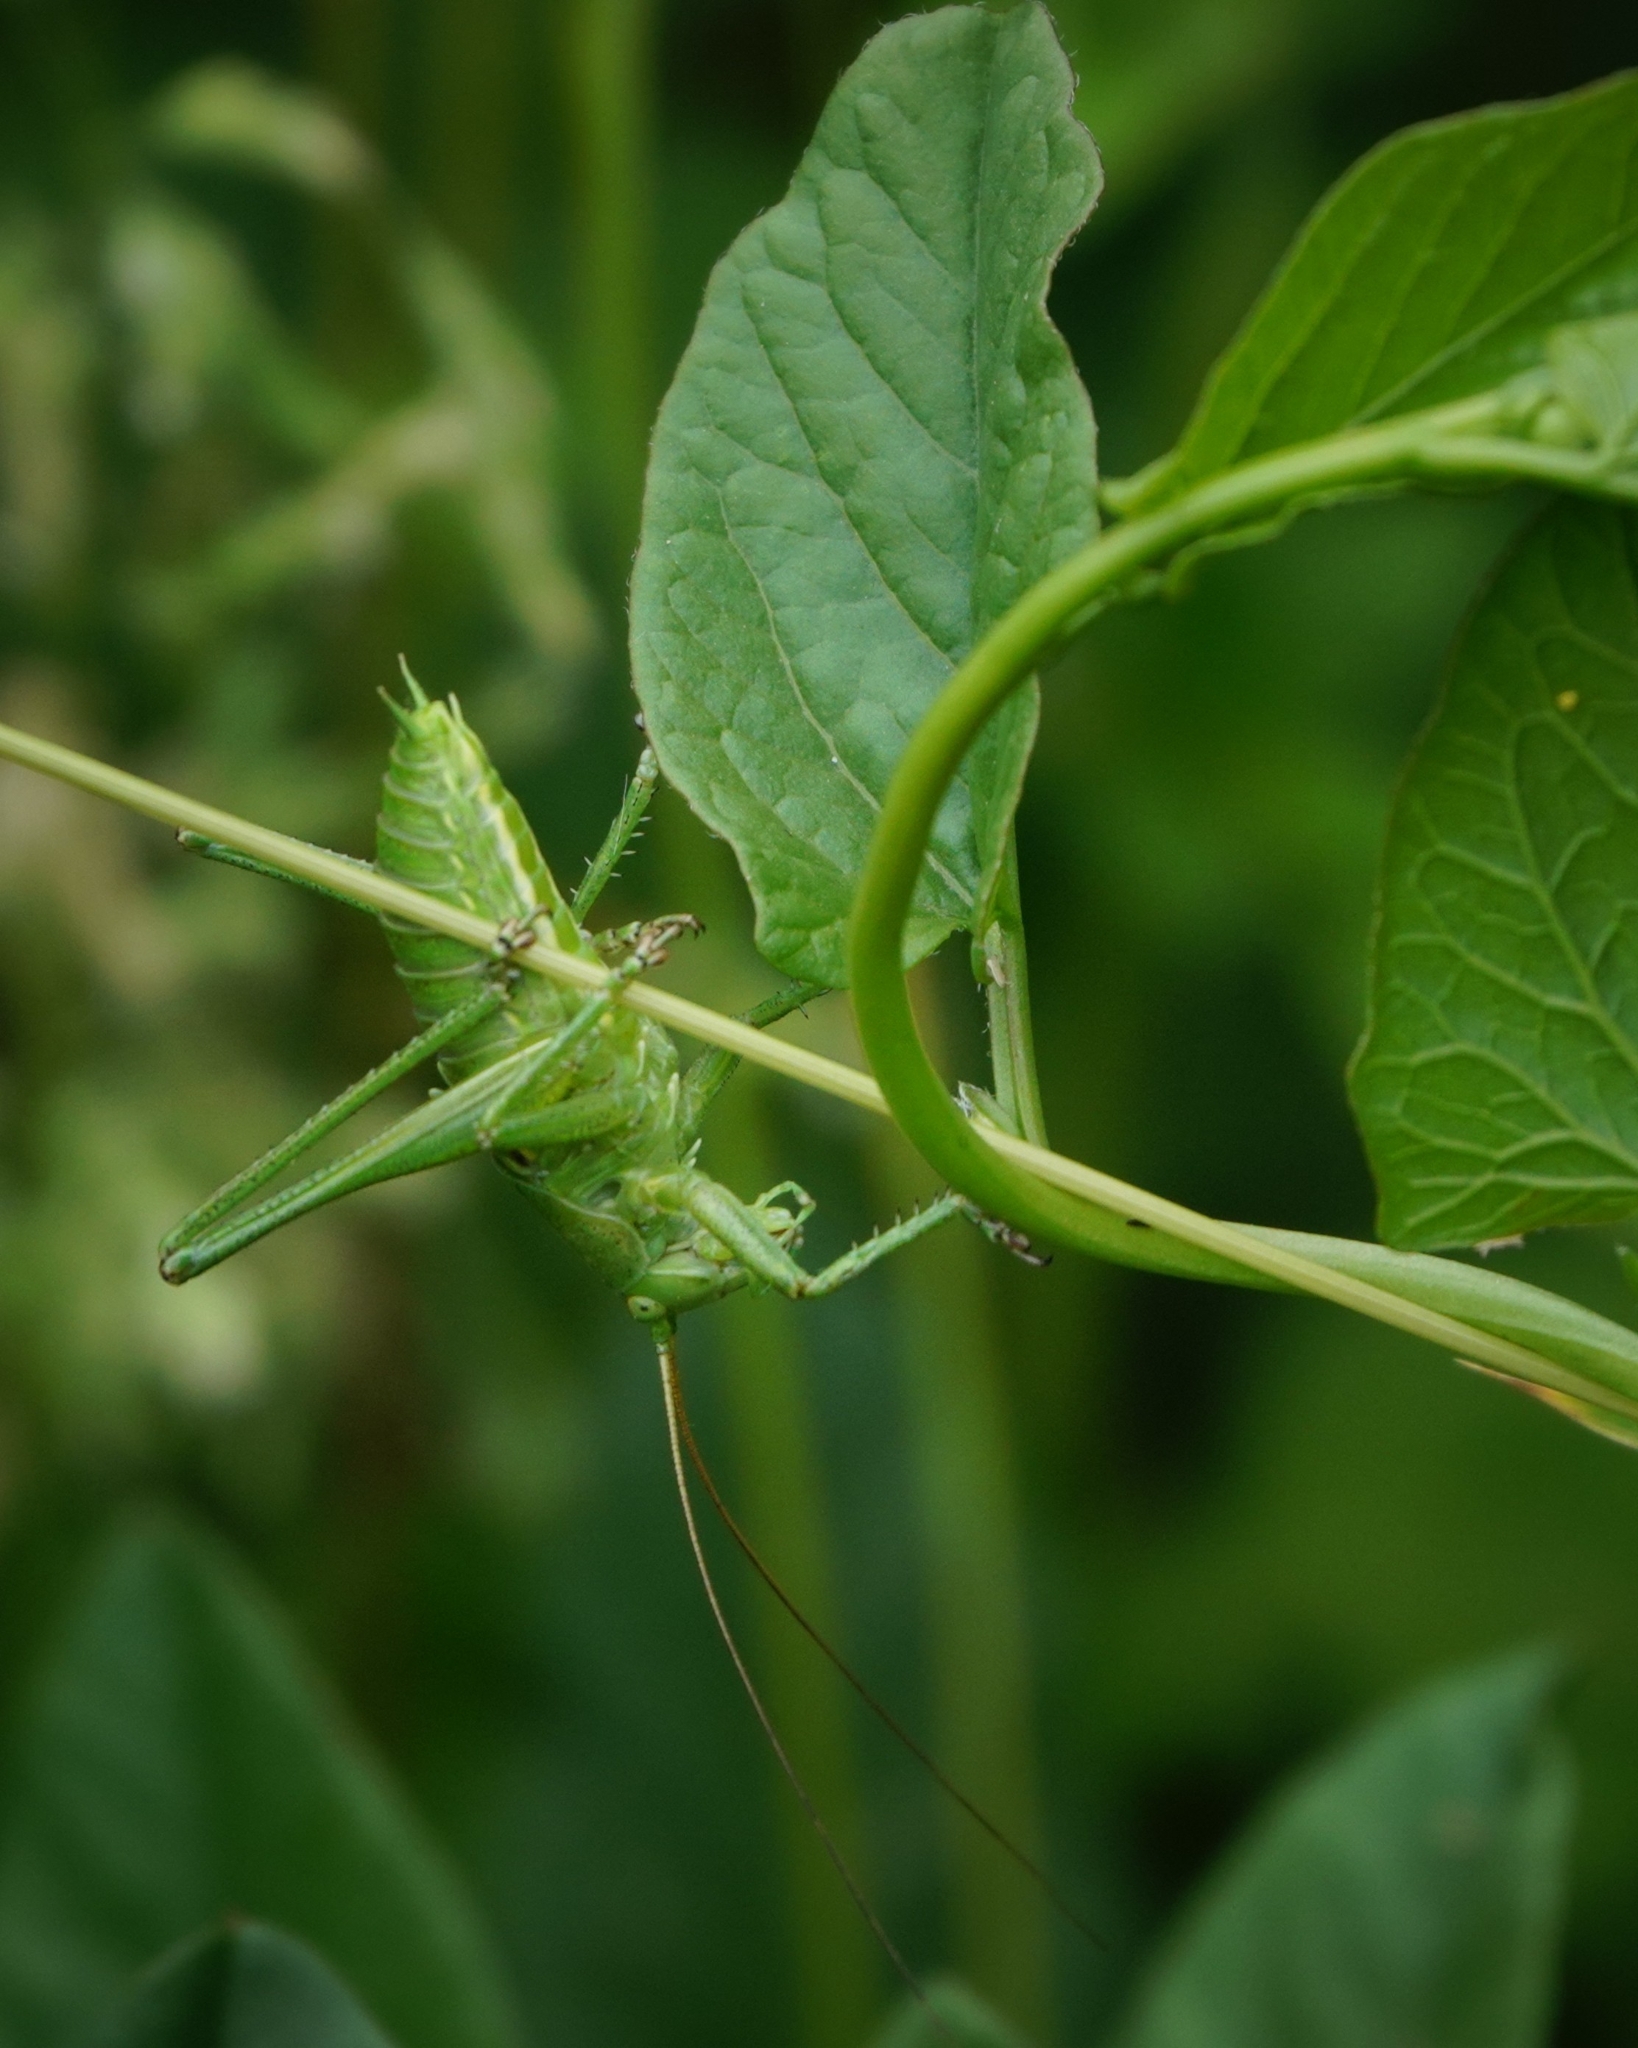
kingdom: Animalia
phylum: Arthropoda
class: Insecta
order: Orthoptera
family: Tettigoniidae
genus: Tettigonia
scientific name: Tettigonia viridissima
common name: Great green bush-cricket
